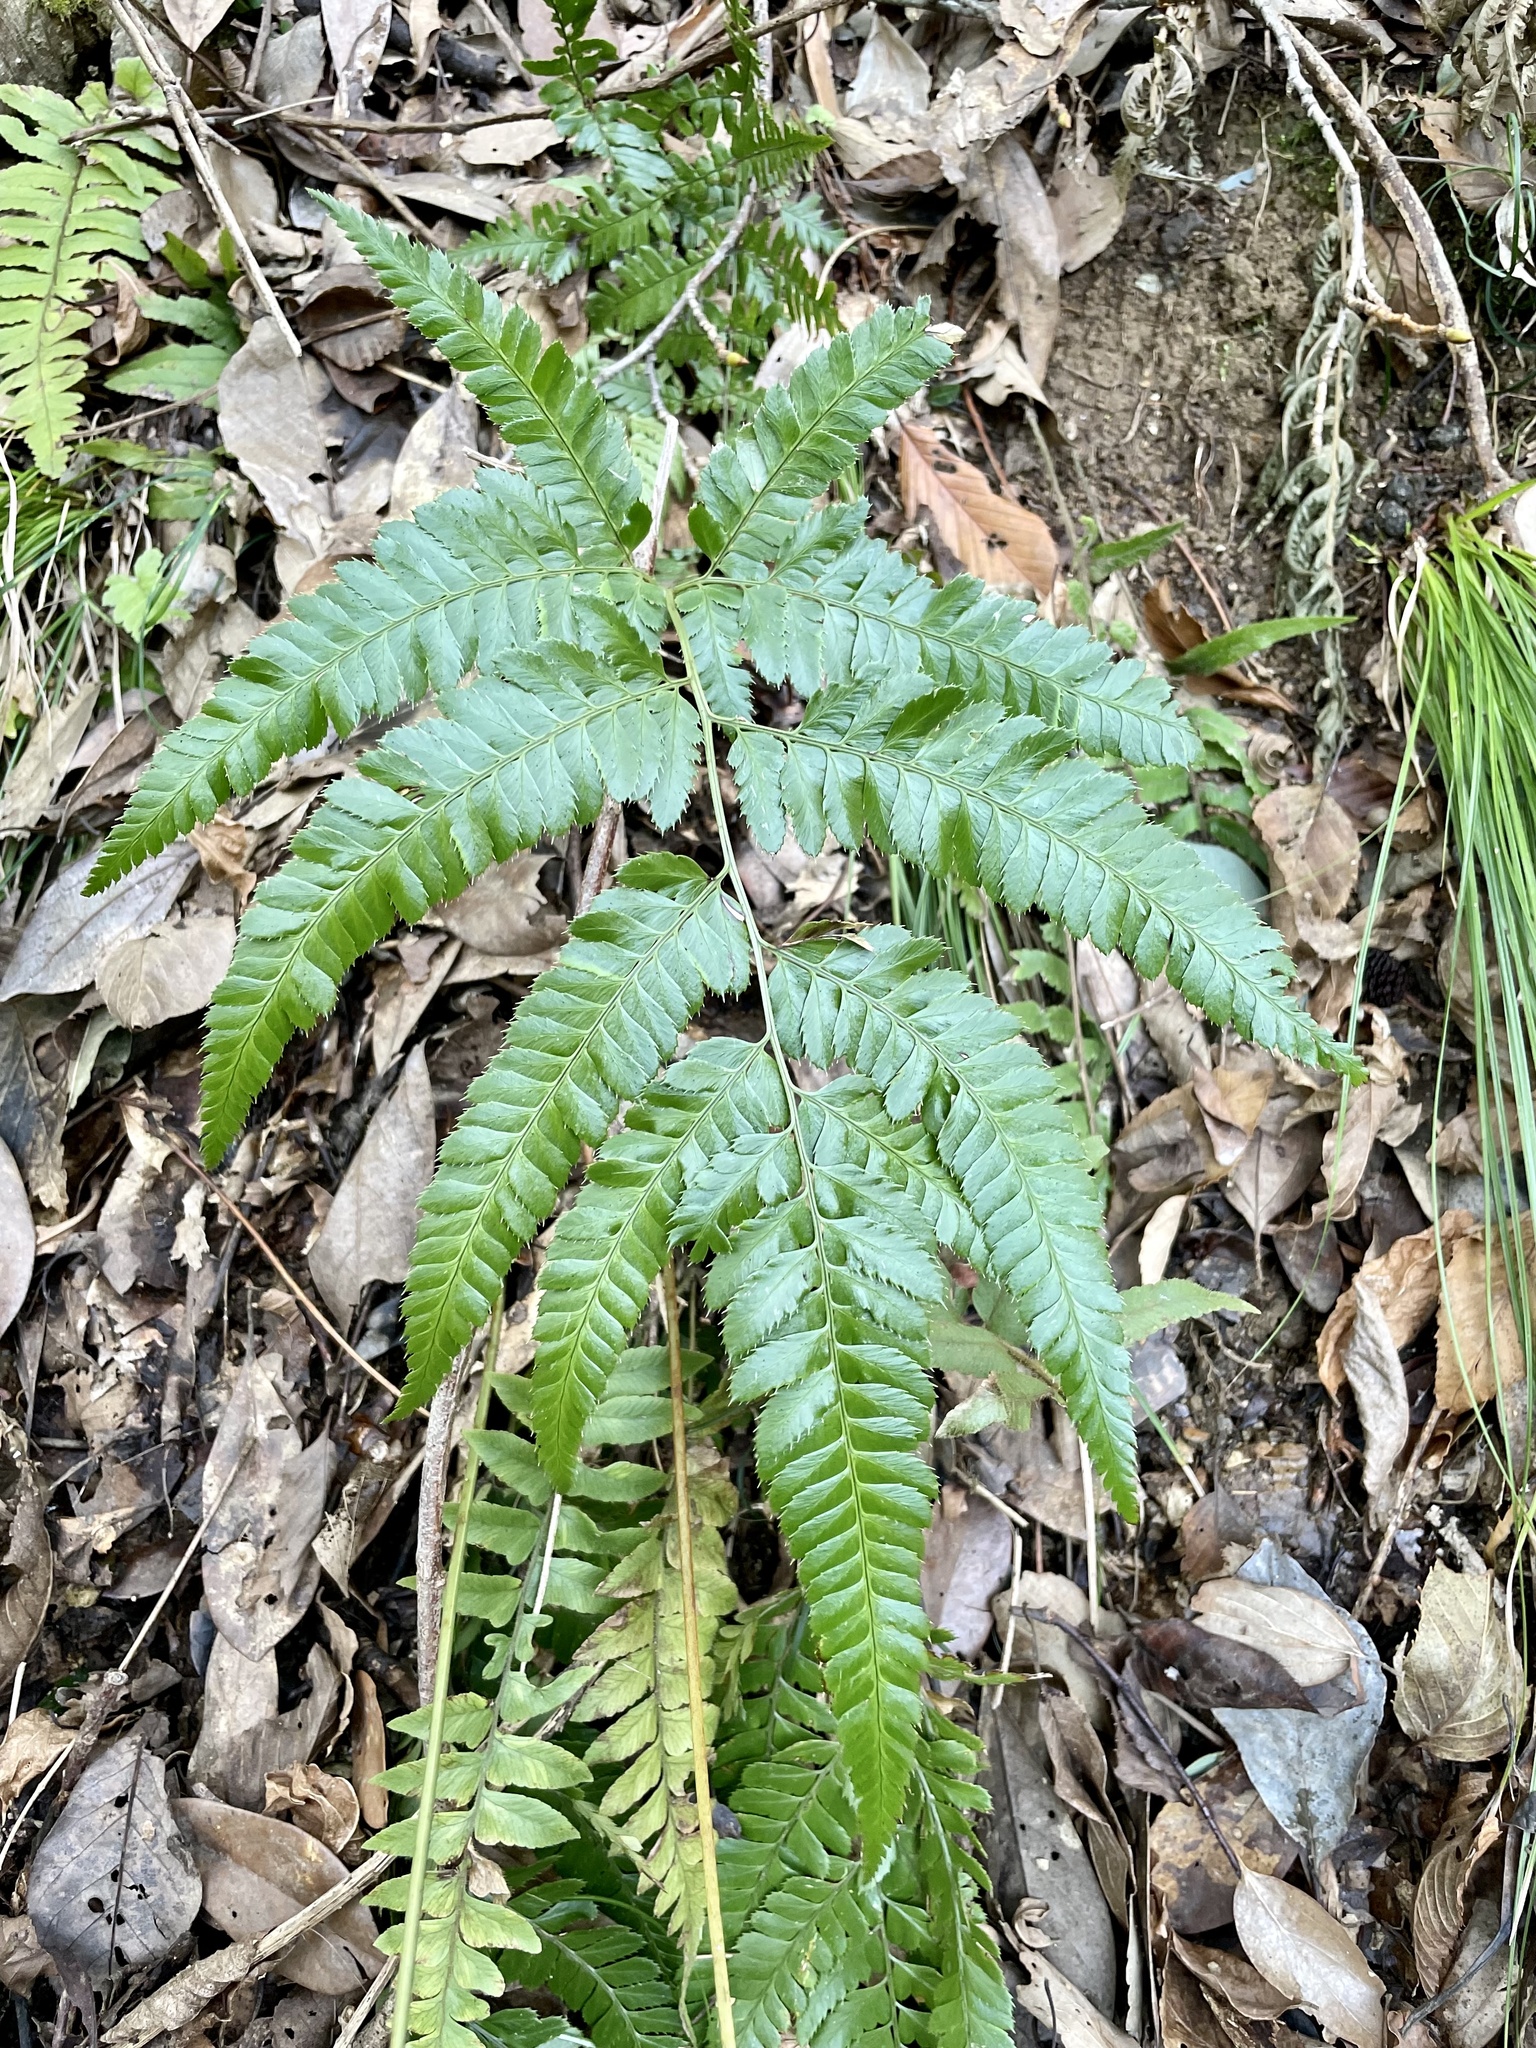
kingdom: Plantae
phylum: Tracheophyta
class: Polypodiopsida
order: Polypodiales
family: Dryopteridaceae
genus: Arachniodes
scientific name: Arachniodes simplicior
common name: Simpler hollyfern
